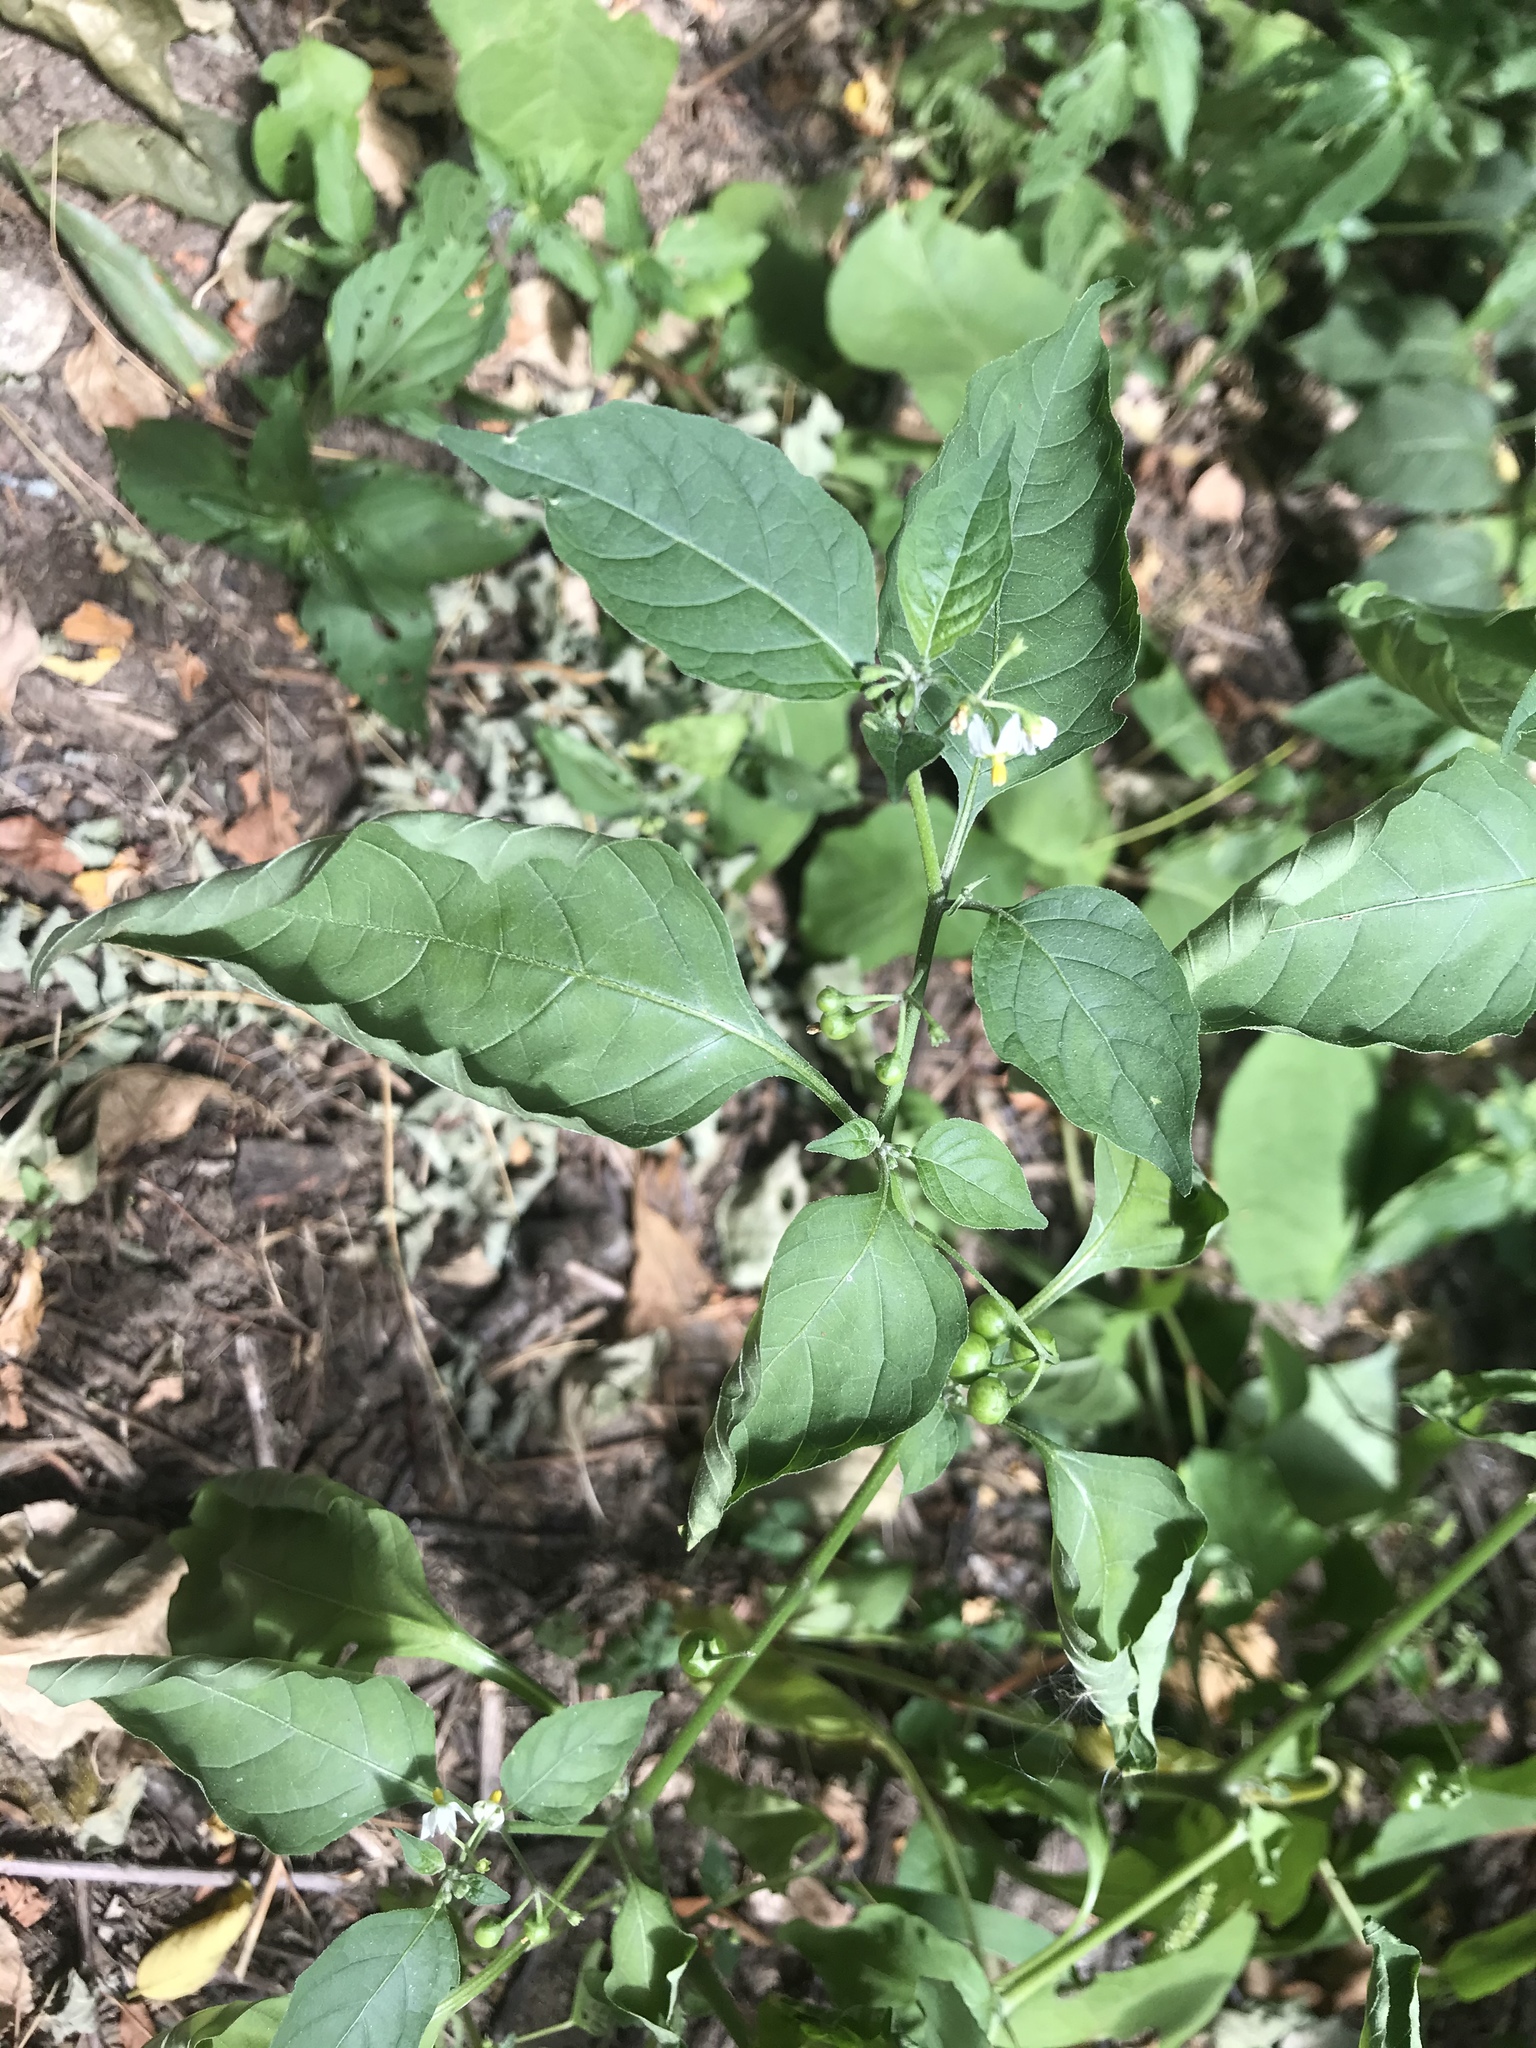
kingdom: Plantae
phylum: Tracheophyta
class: Magnoliopsida
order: Solanales
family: Solanaceae
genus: Solanum
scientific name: Solanum emulans
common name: Eastern black nightshade
